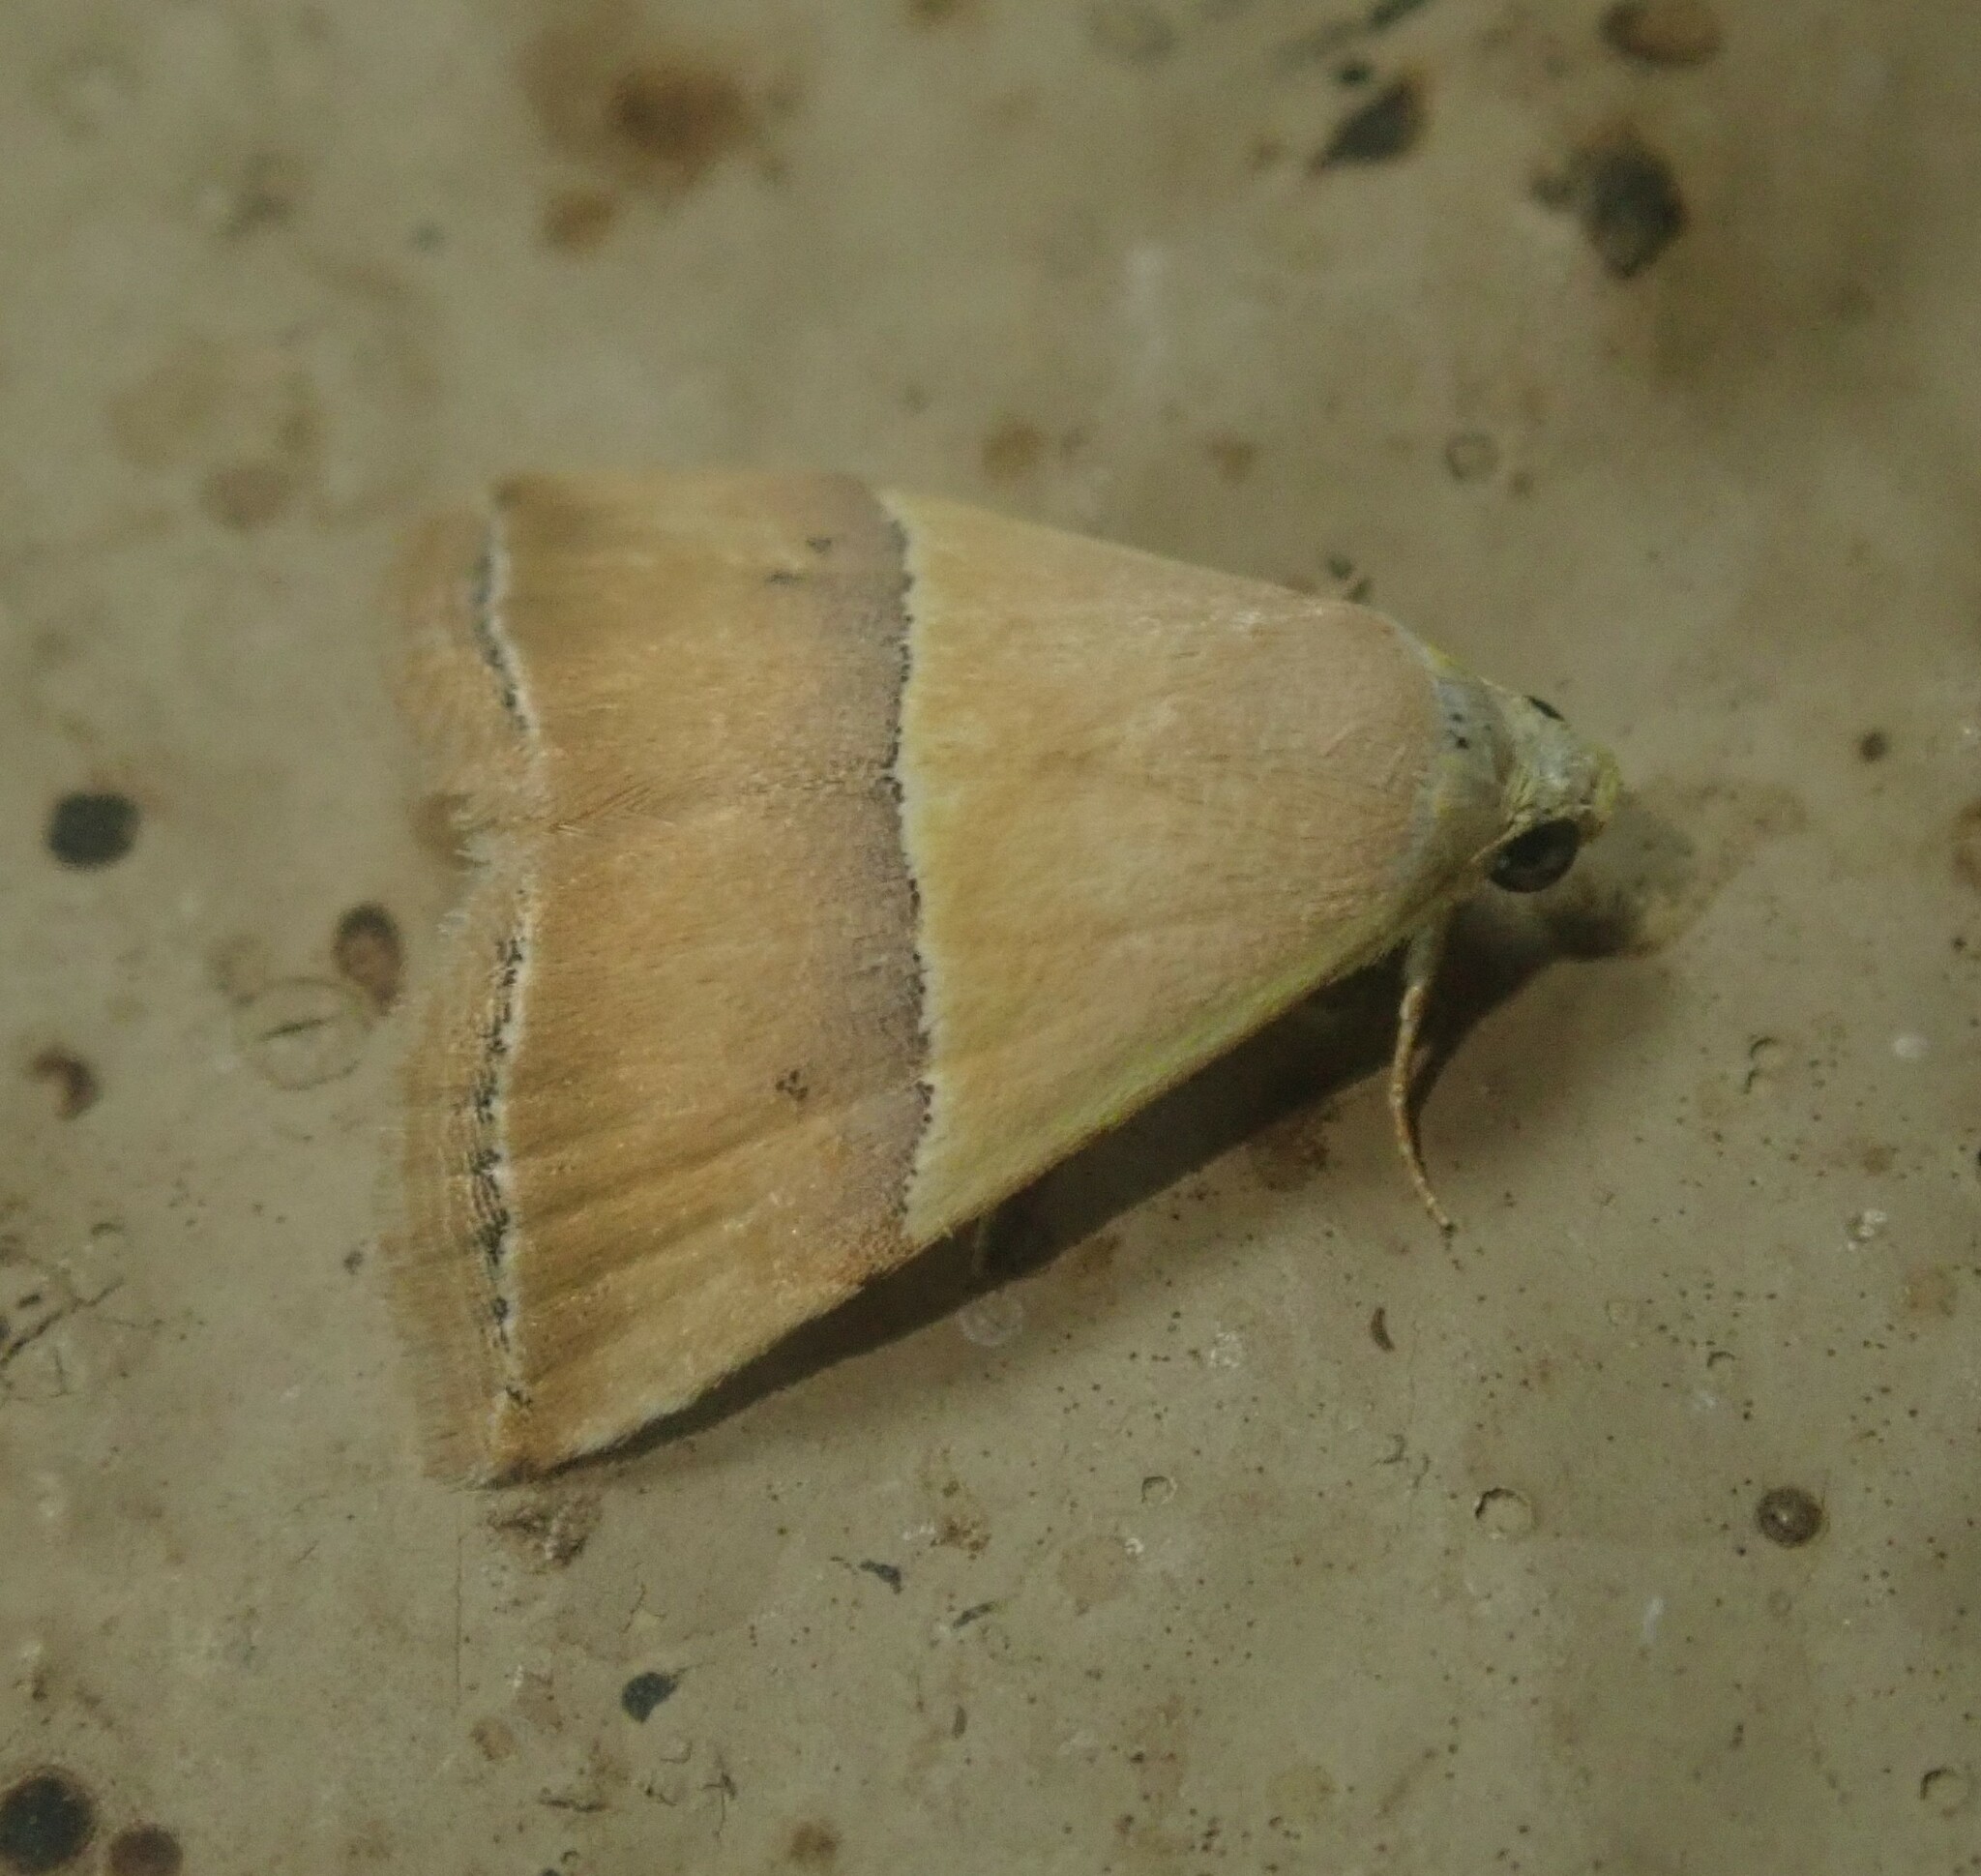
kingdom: Animalia
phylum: Arthropoda
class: Insecta
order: Lepidoptera
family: Noctuidae
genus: Eublemma
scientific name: Eublemma caffrorum
